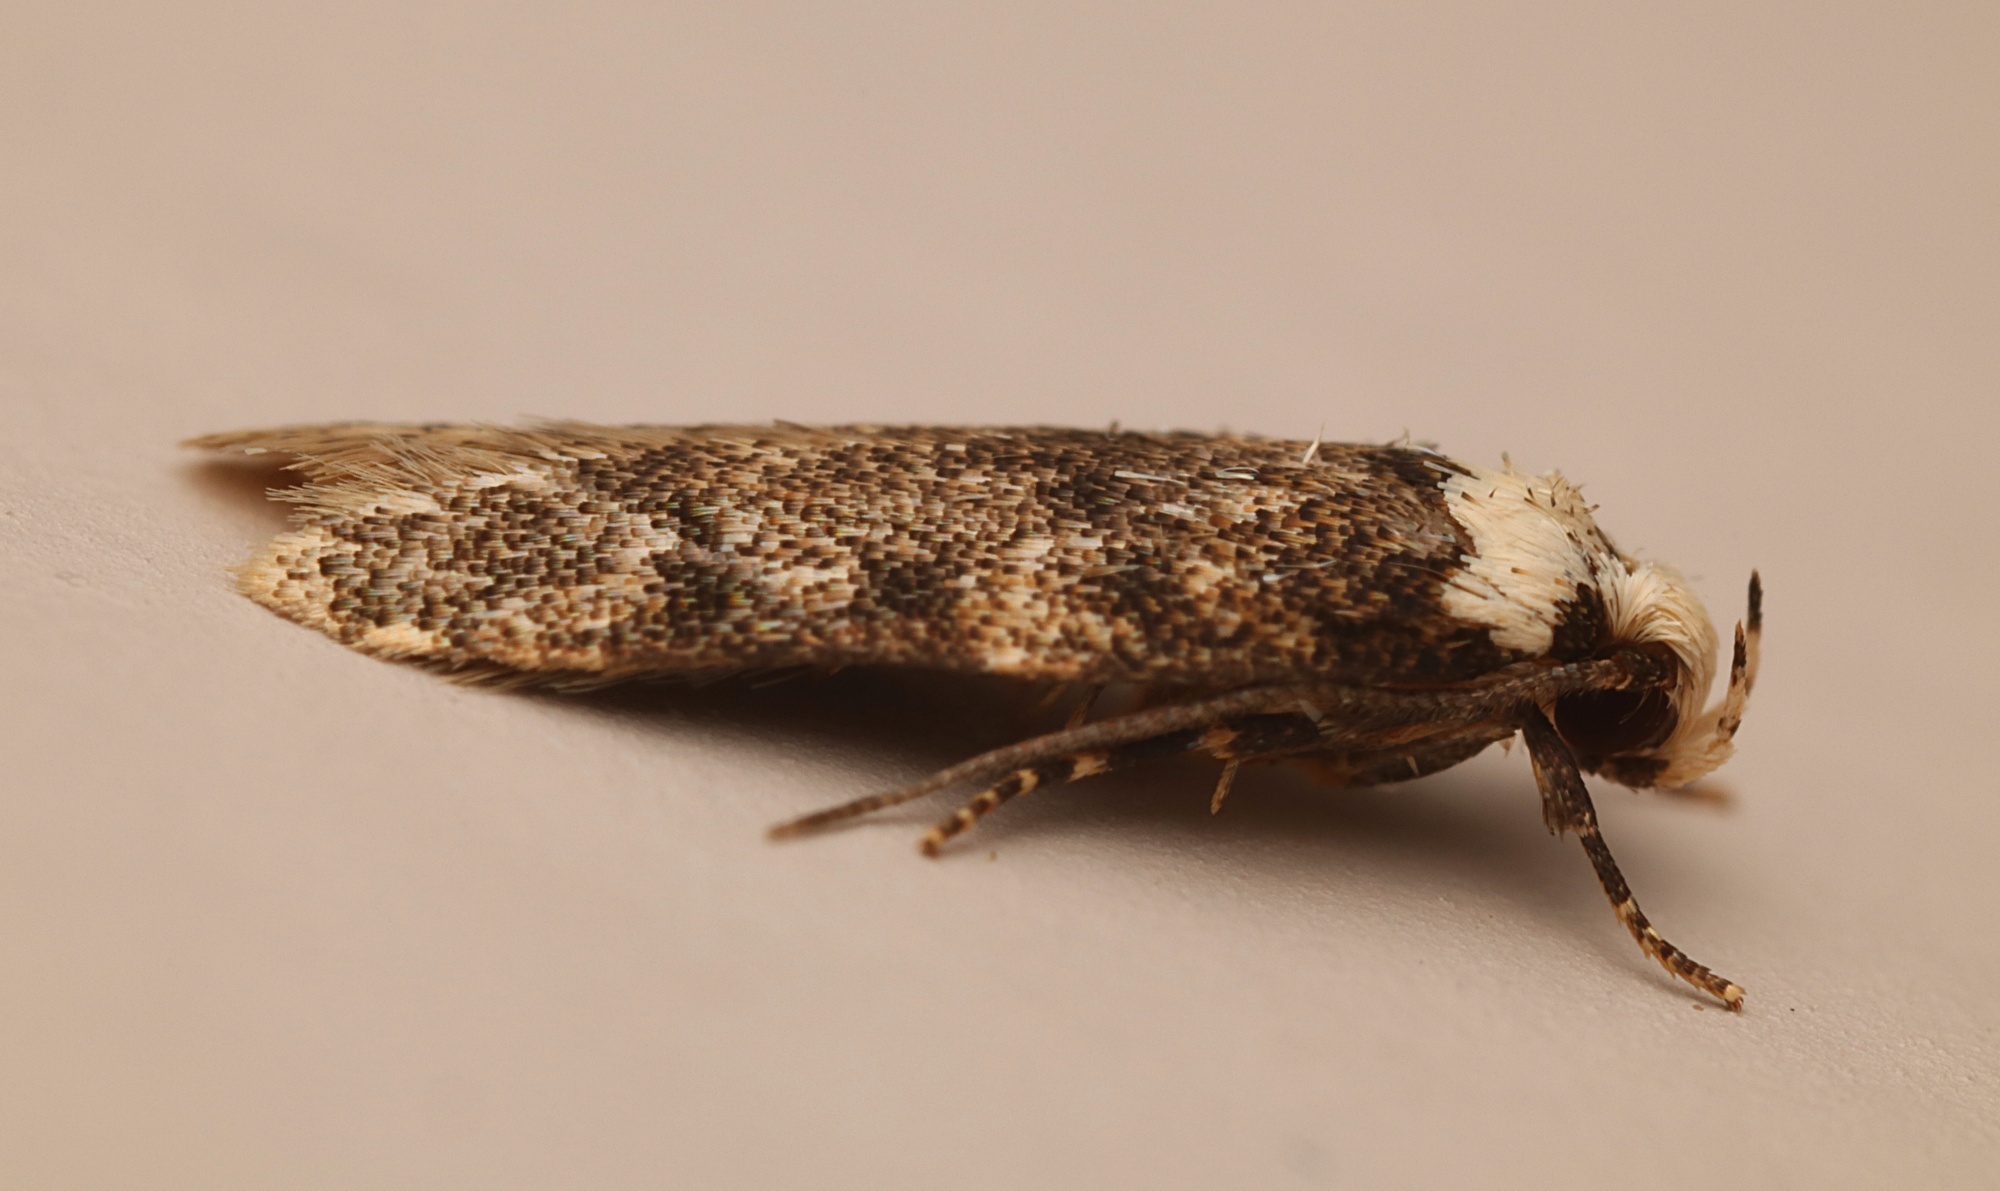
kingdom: Animalia
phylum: Arthropoda
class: Insecta
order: Lepidoptera
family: Oecophoridae
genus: Endrosis
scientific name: Endrosis sarcitrella
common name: White-shouldered house moth
